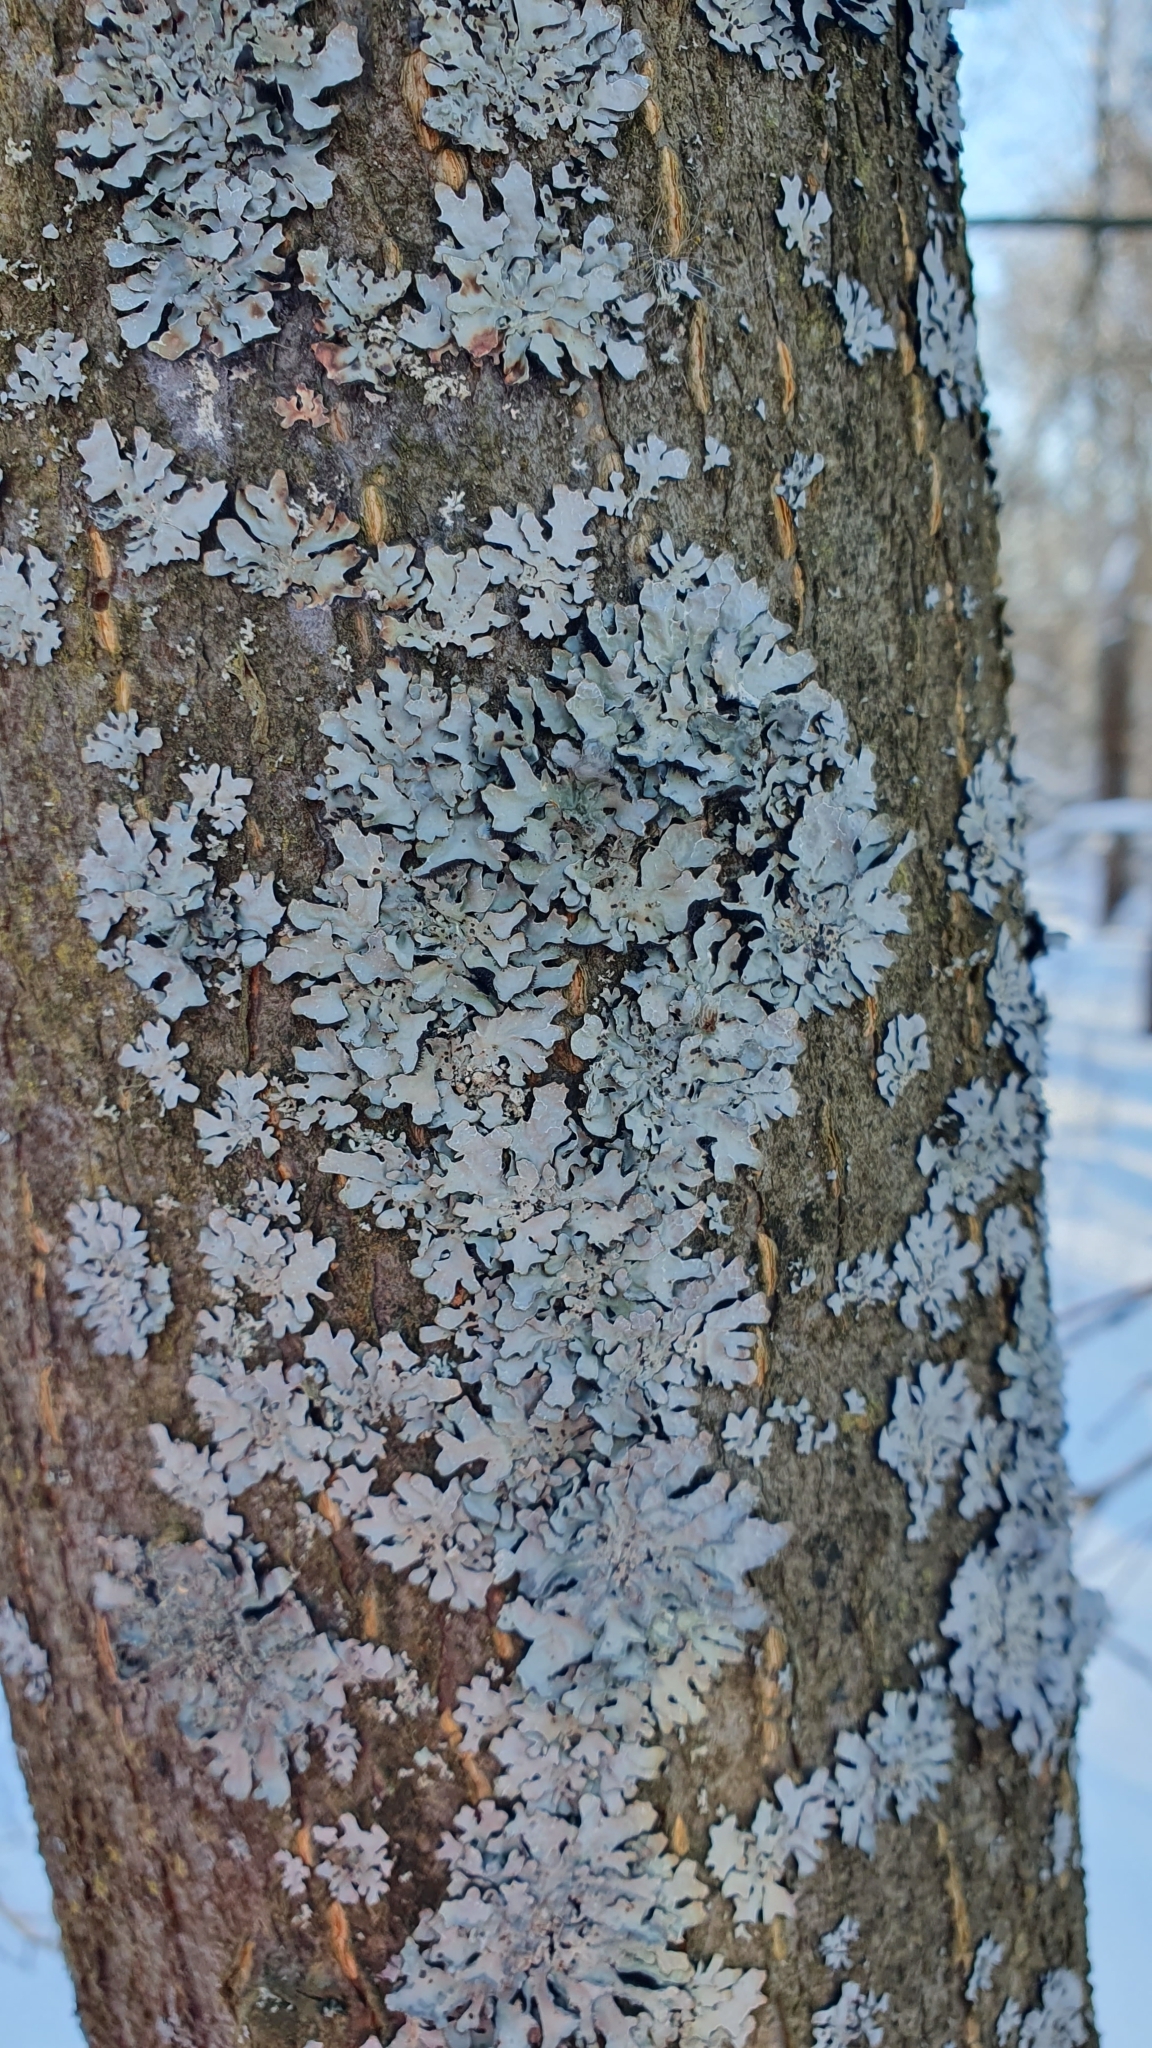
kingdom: Fungi
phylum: Ascomycota
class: Lecanoromycetes
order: Lecanorales
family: Parmeliaceae
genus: Parmelia
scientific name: Parmelia sulcata
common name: Netted shield lichen
